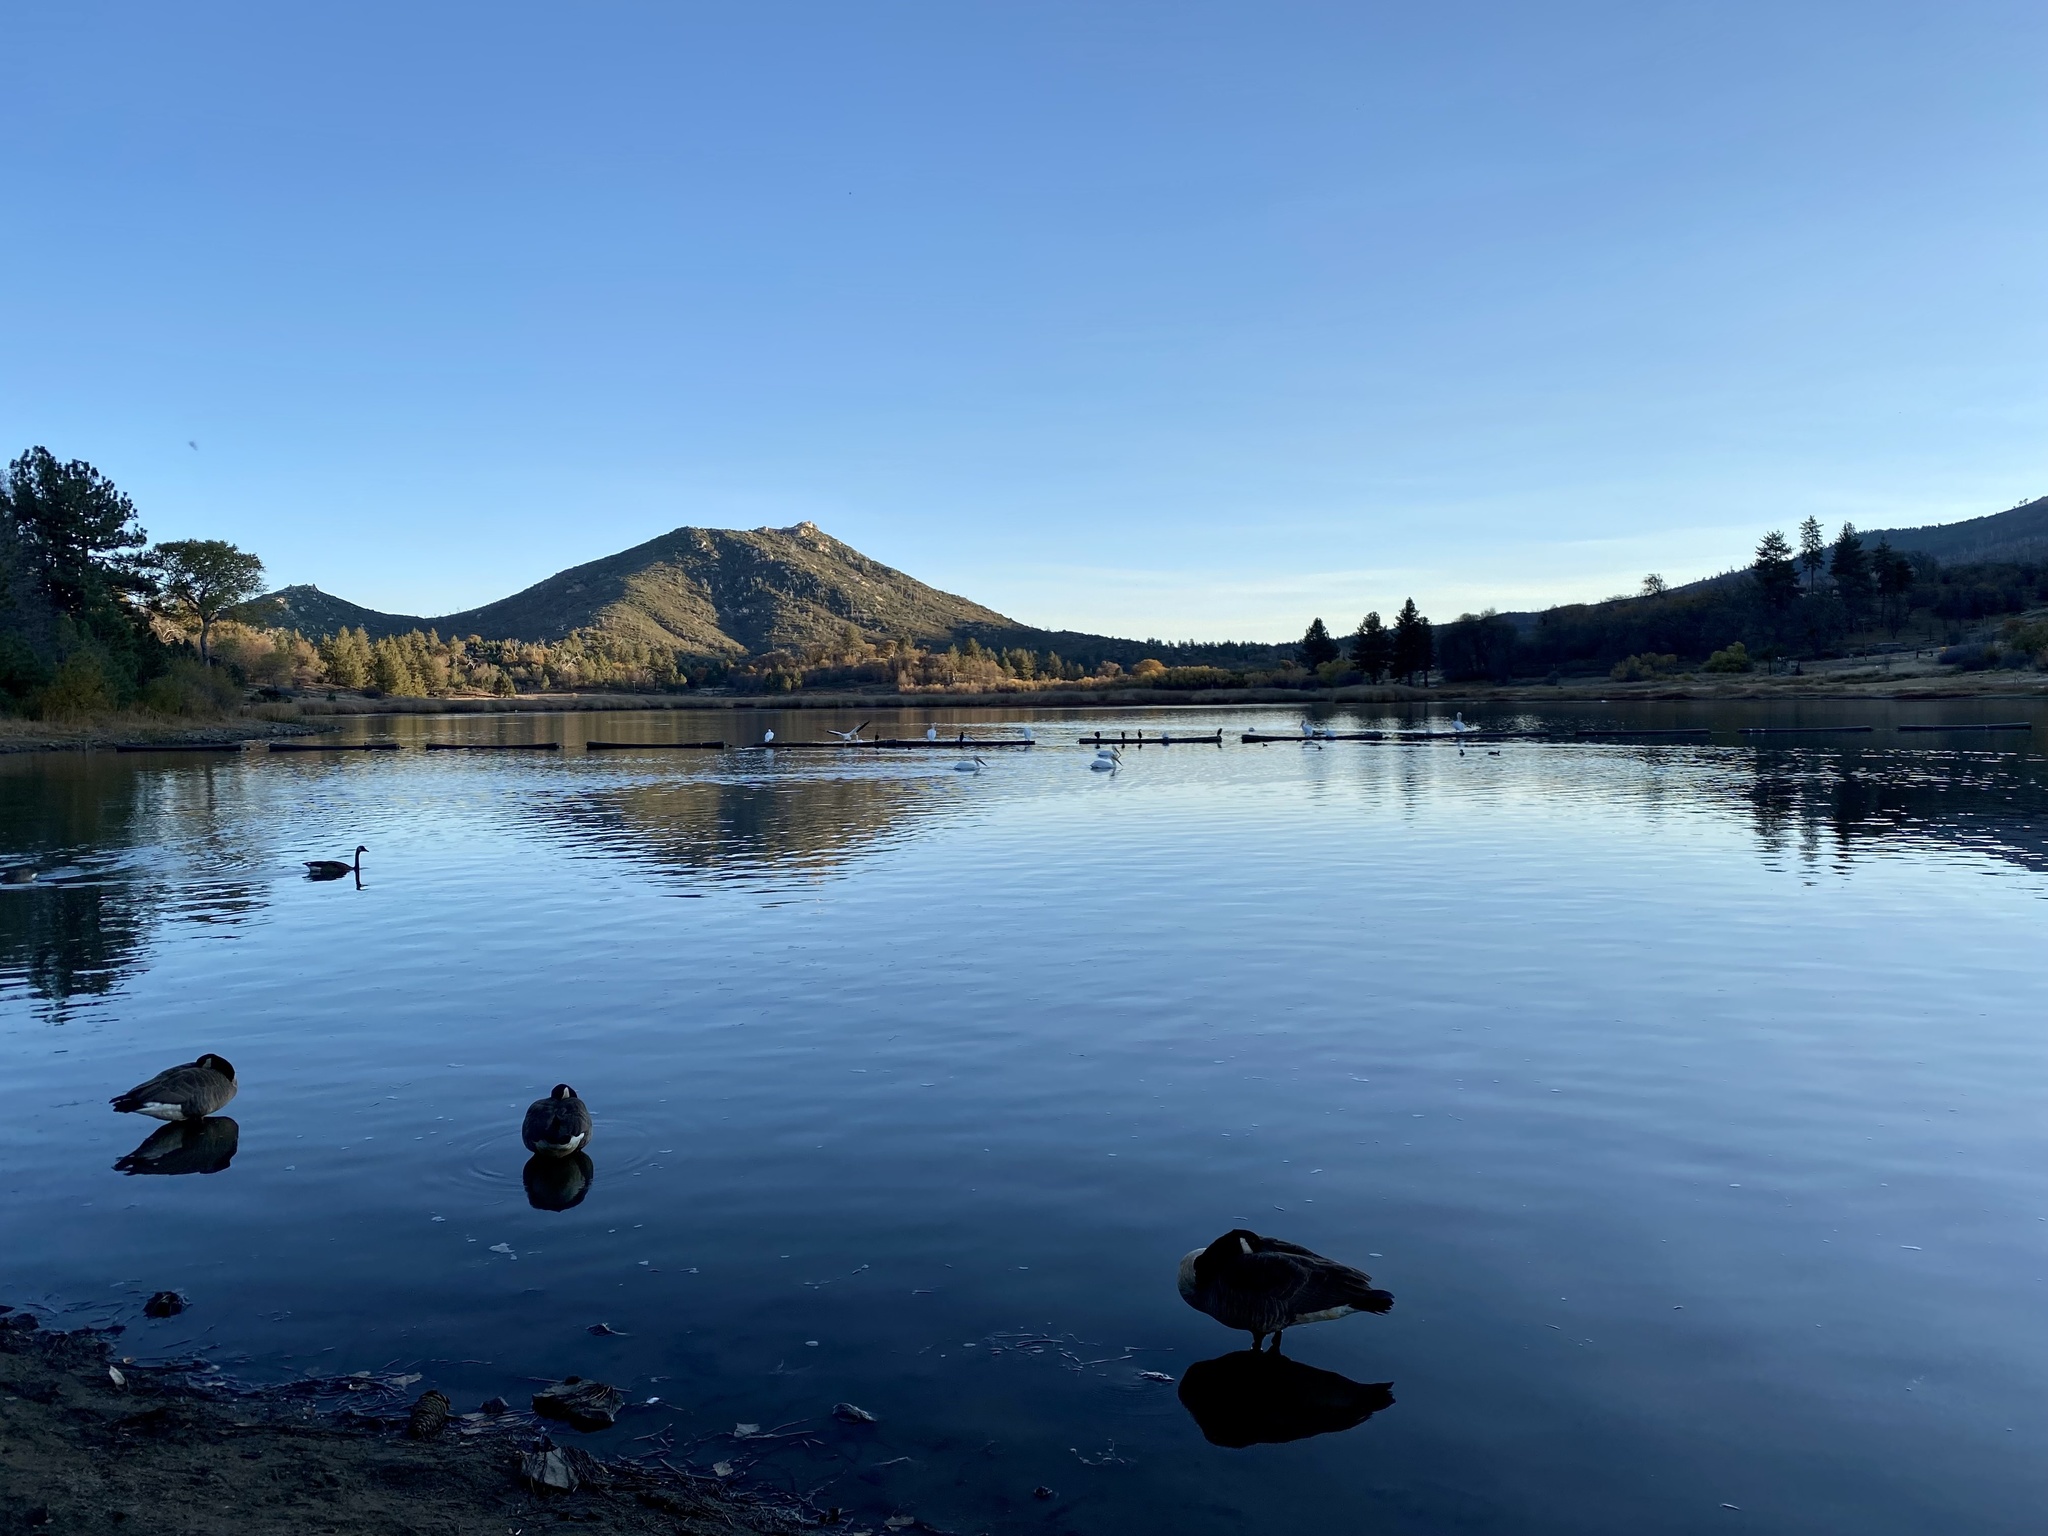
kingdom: Animalia
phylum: Chordata
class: Aves
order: Anseriformes
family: Anatidae
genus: Branta
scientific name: Branta canadensis
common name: Canada goose
